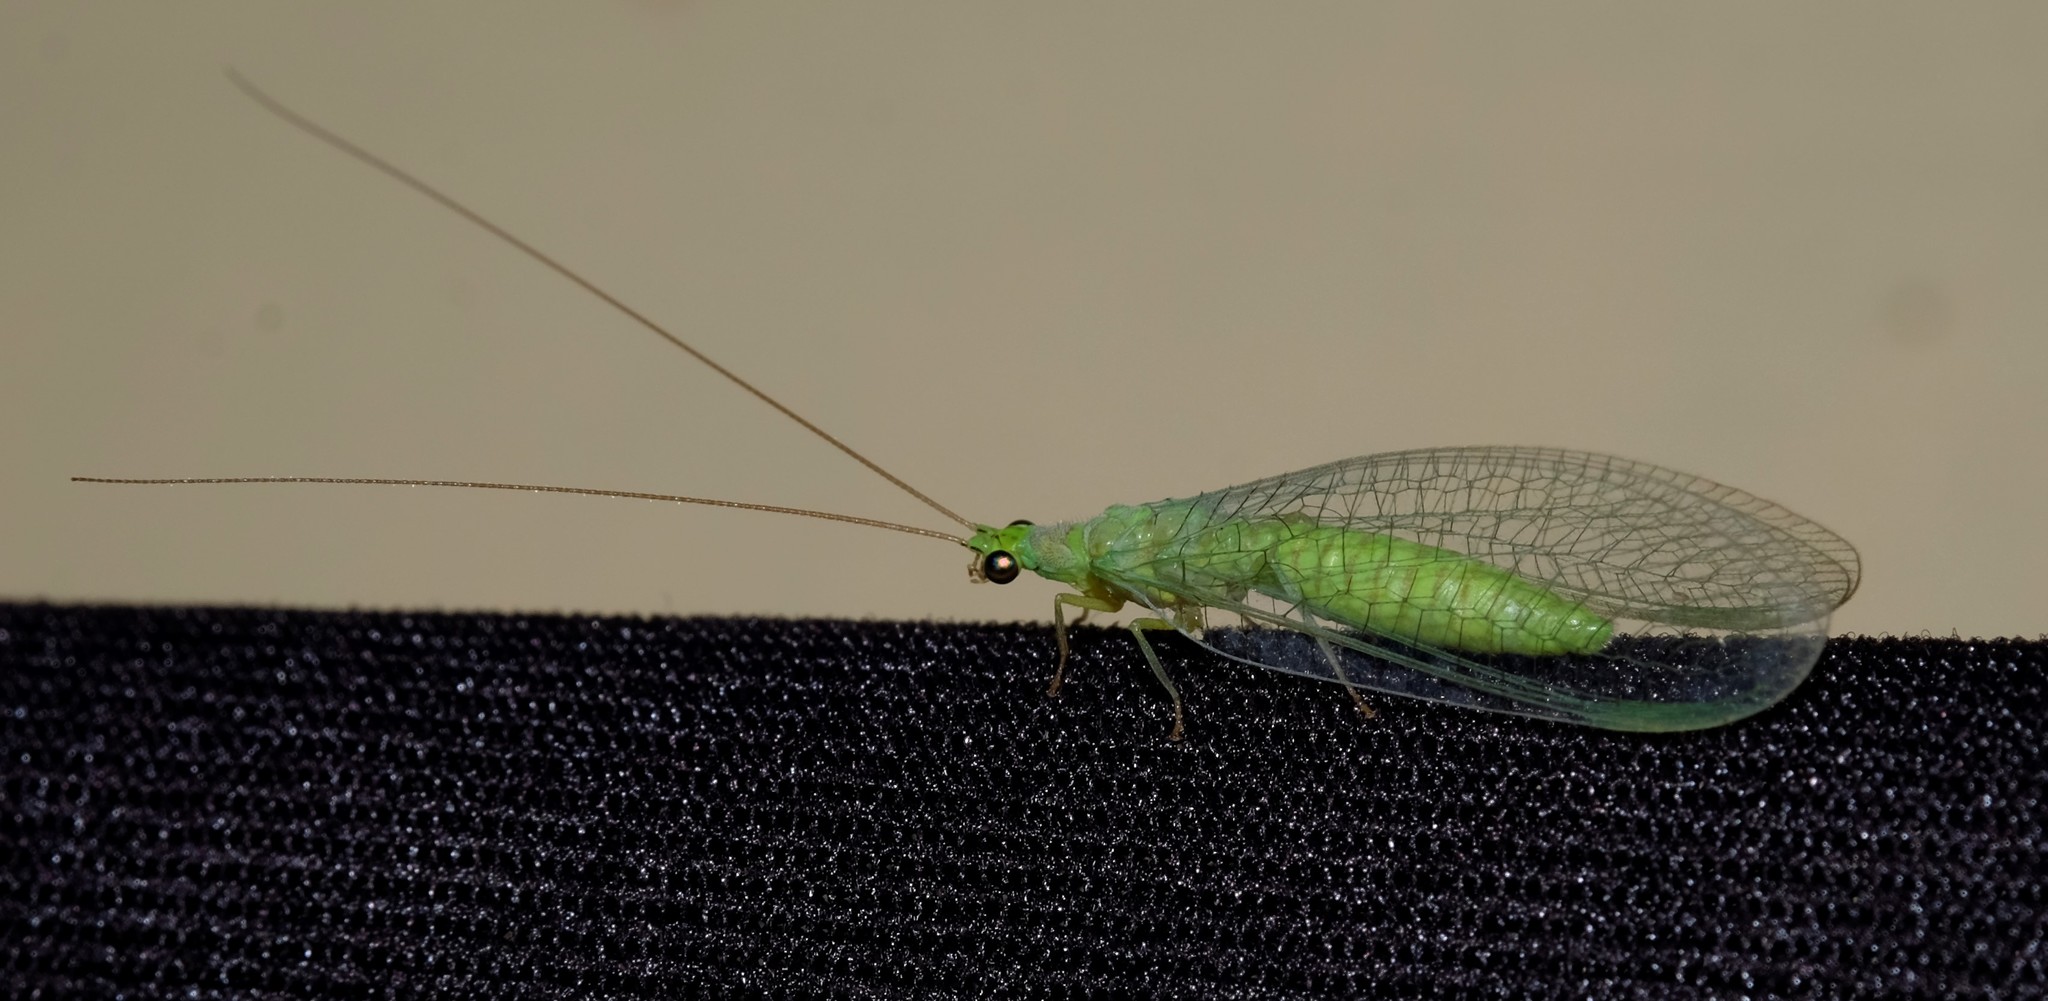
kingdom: Animalia
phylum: Arthropoda
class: Insecta
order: Neuroptera
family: Chrysopidae
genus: Mallada
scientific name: Mallada signatus
